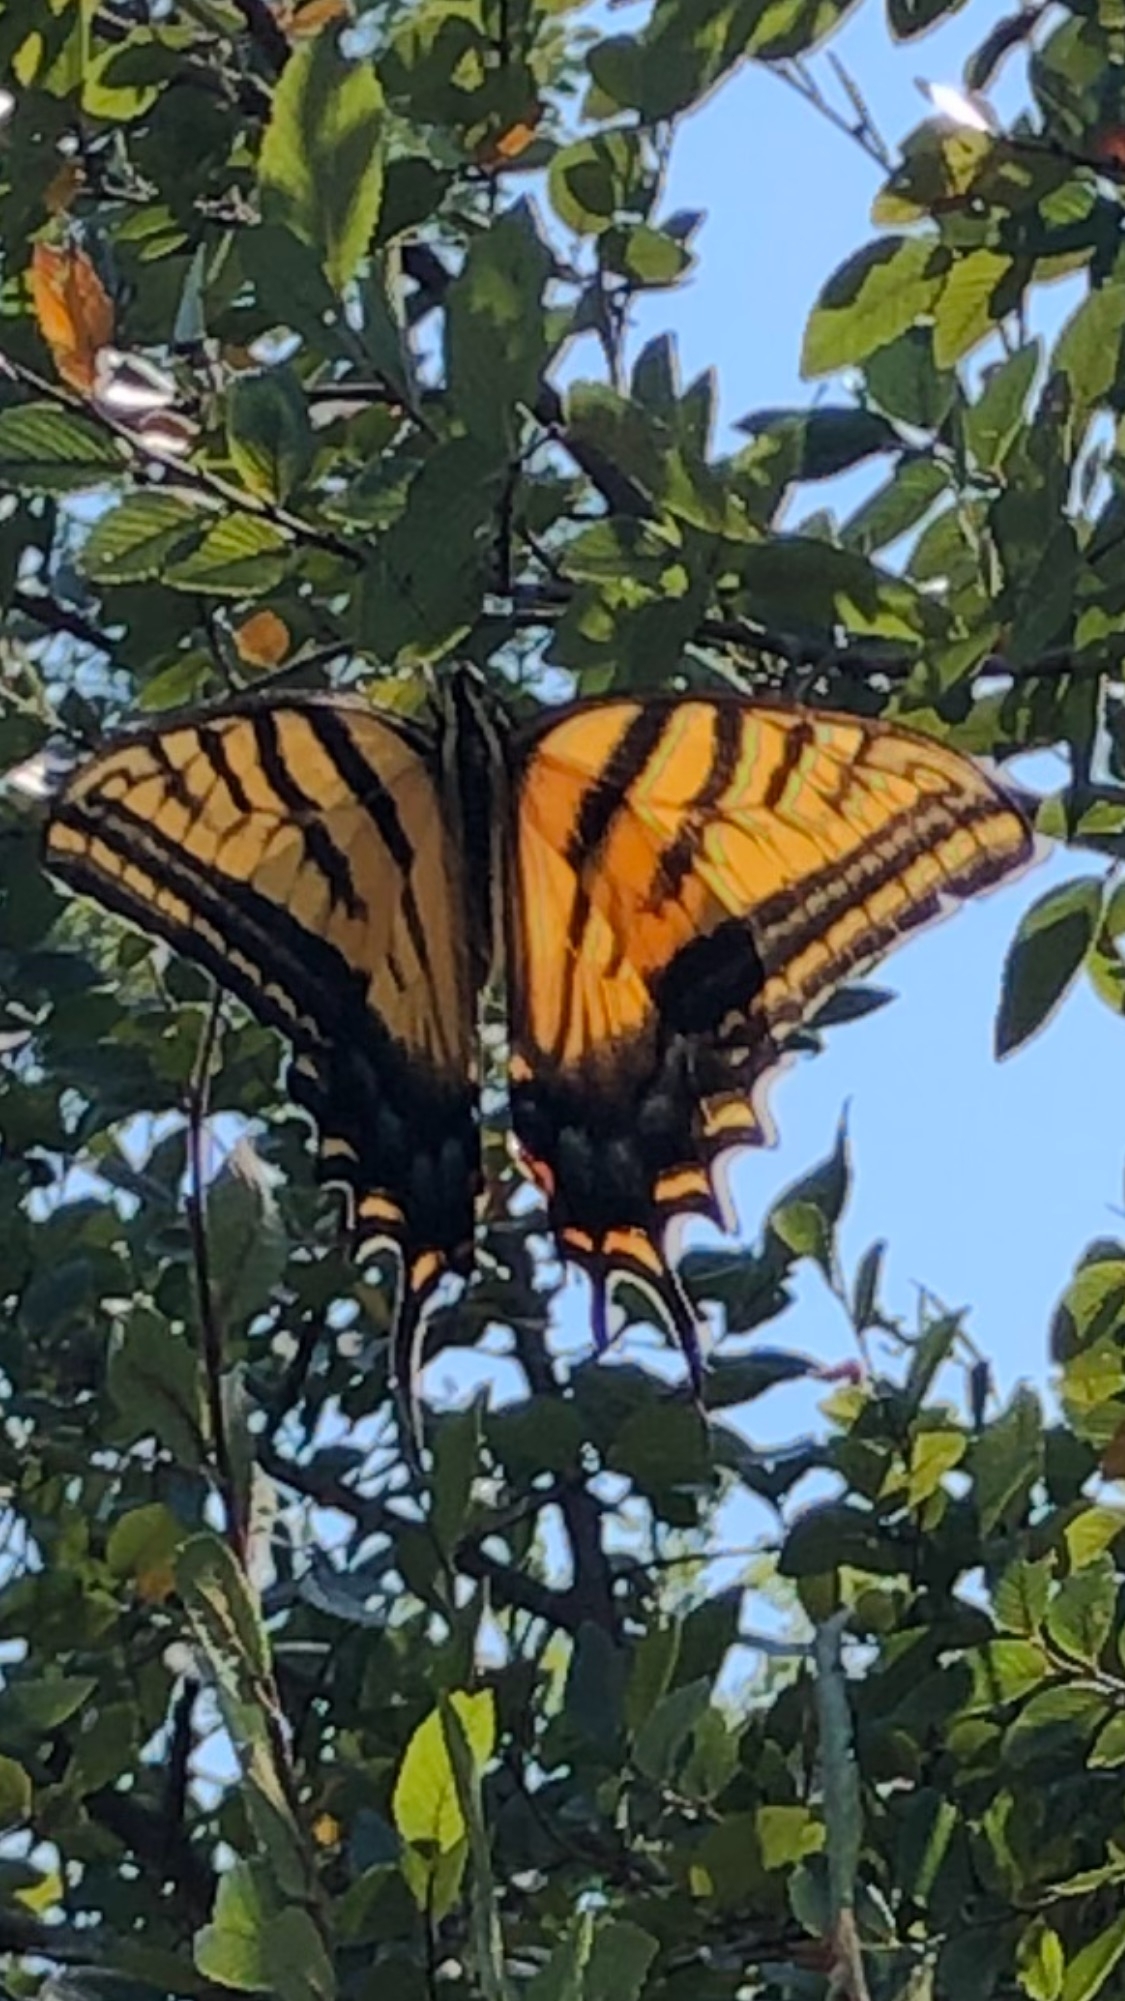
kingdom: Animalia
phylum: Arthropoda
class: Insecta
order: Lepidoptera
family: Papilionidae
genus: Papilio
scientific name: Papilio multicaudata
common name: Two-tailed tiger swallowtail
